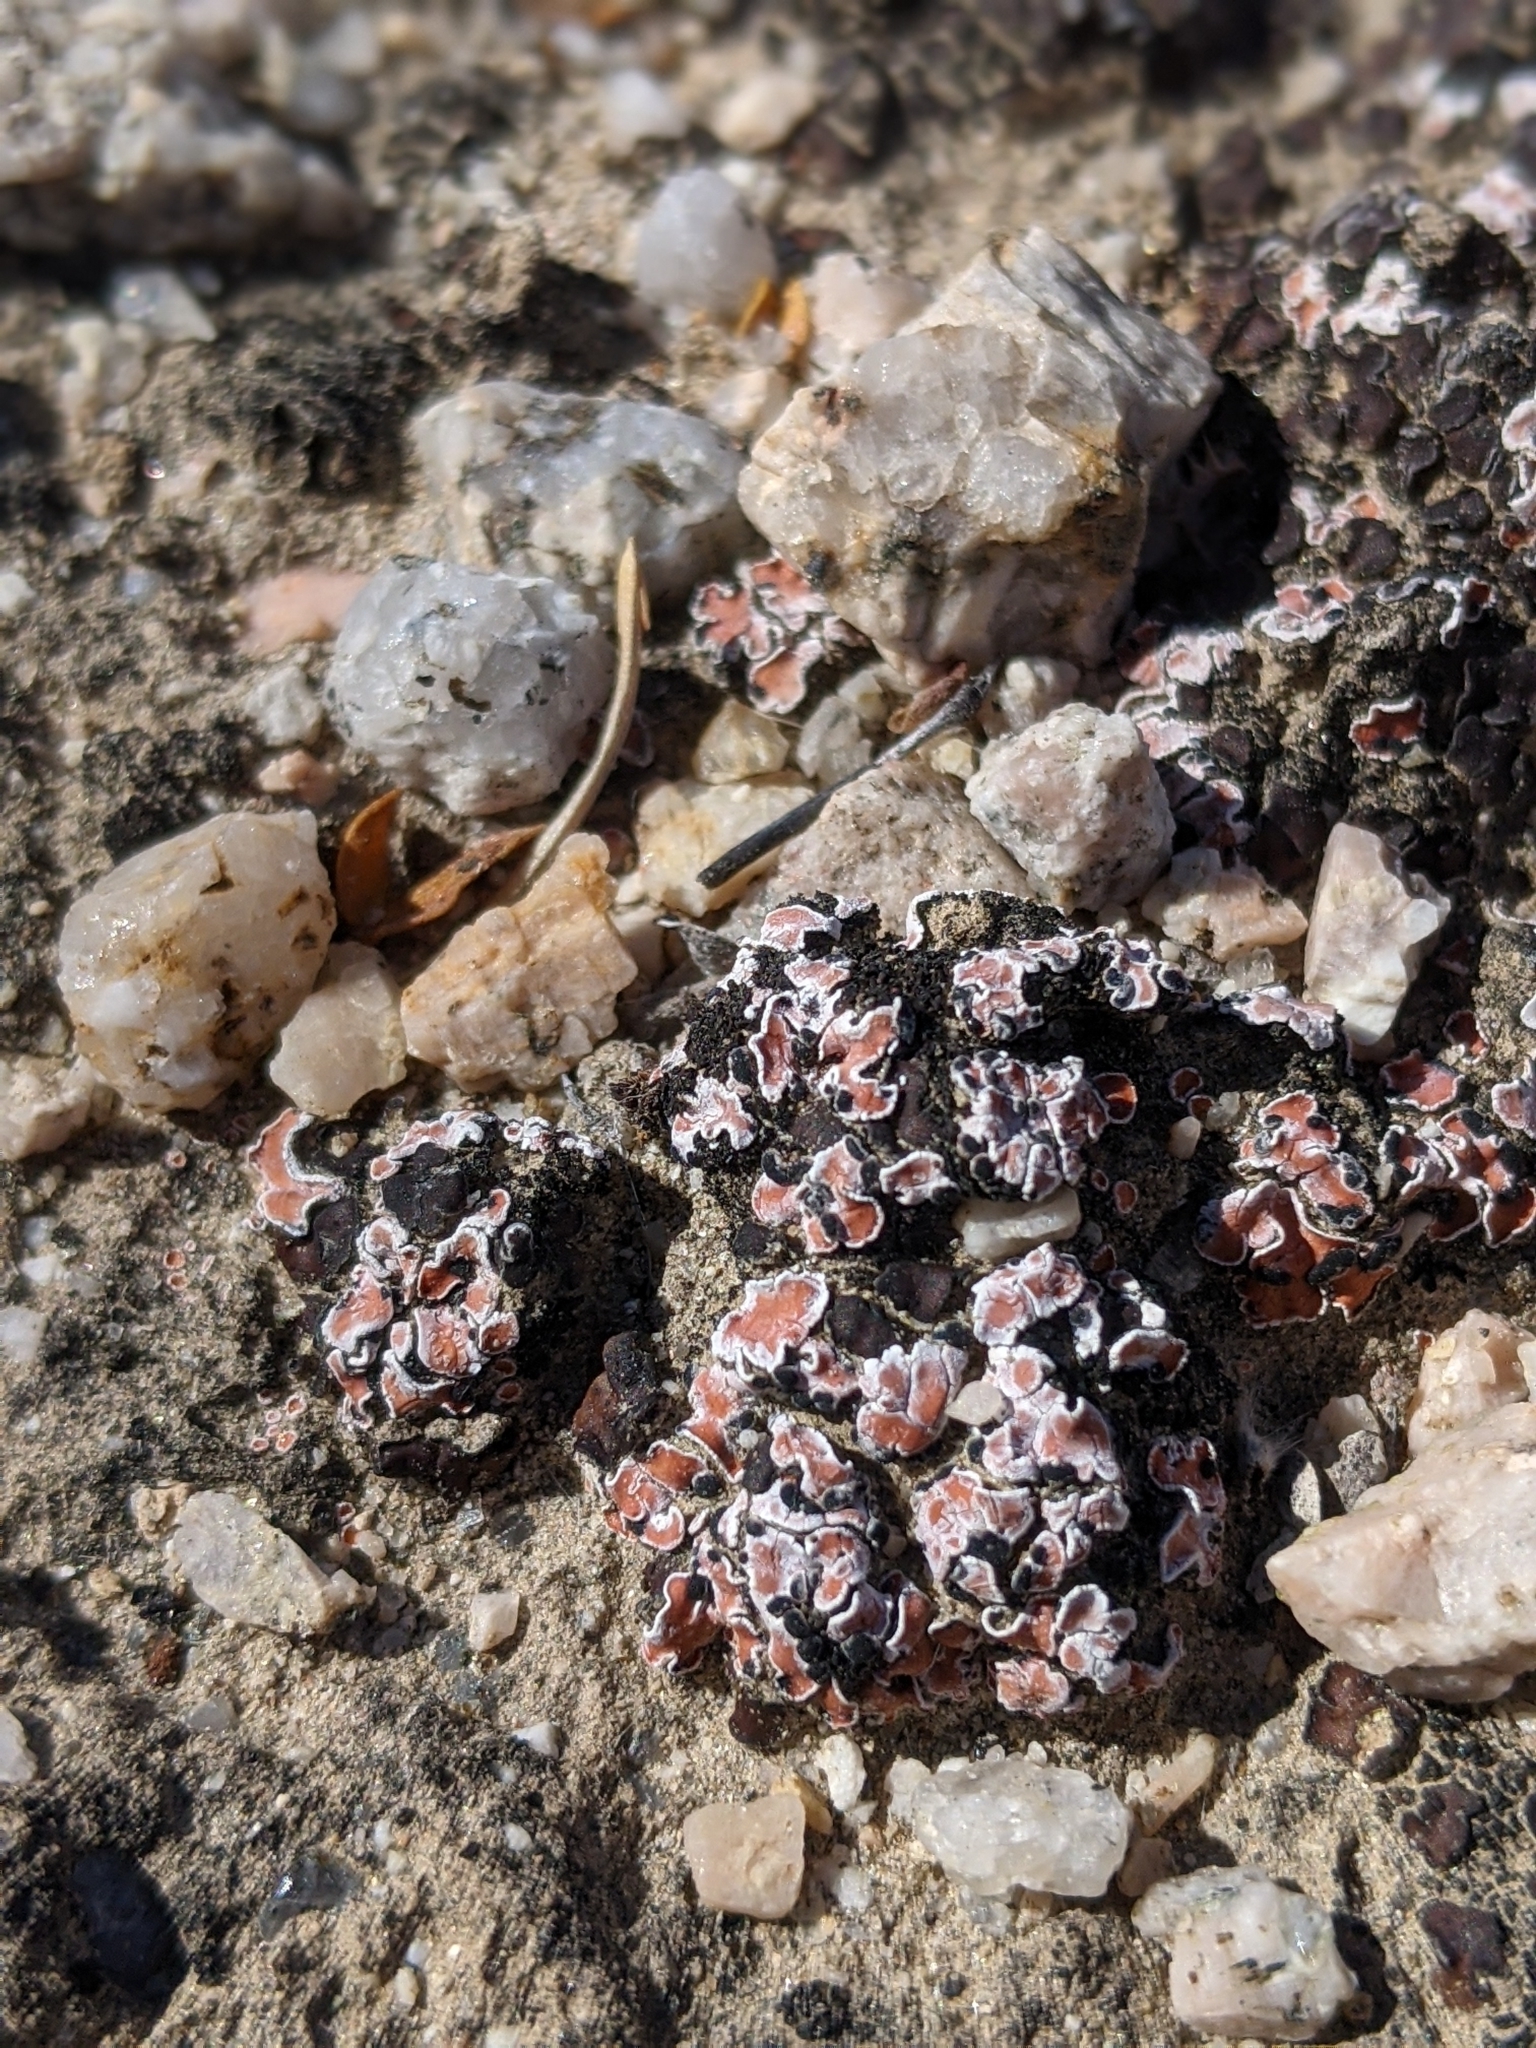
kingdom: Fungi
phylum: Ascomycota
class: Lecanoromycetes
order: Lecanorales
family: Psoraceae
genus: Psora
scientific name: Psora decipiens
